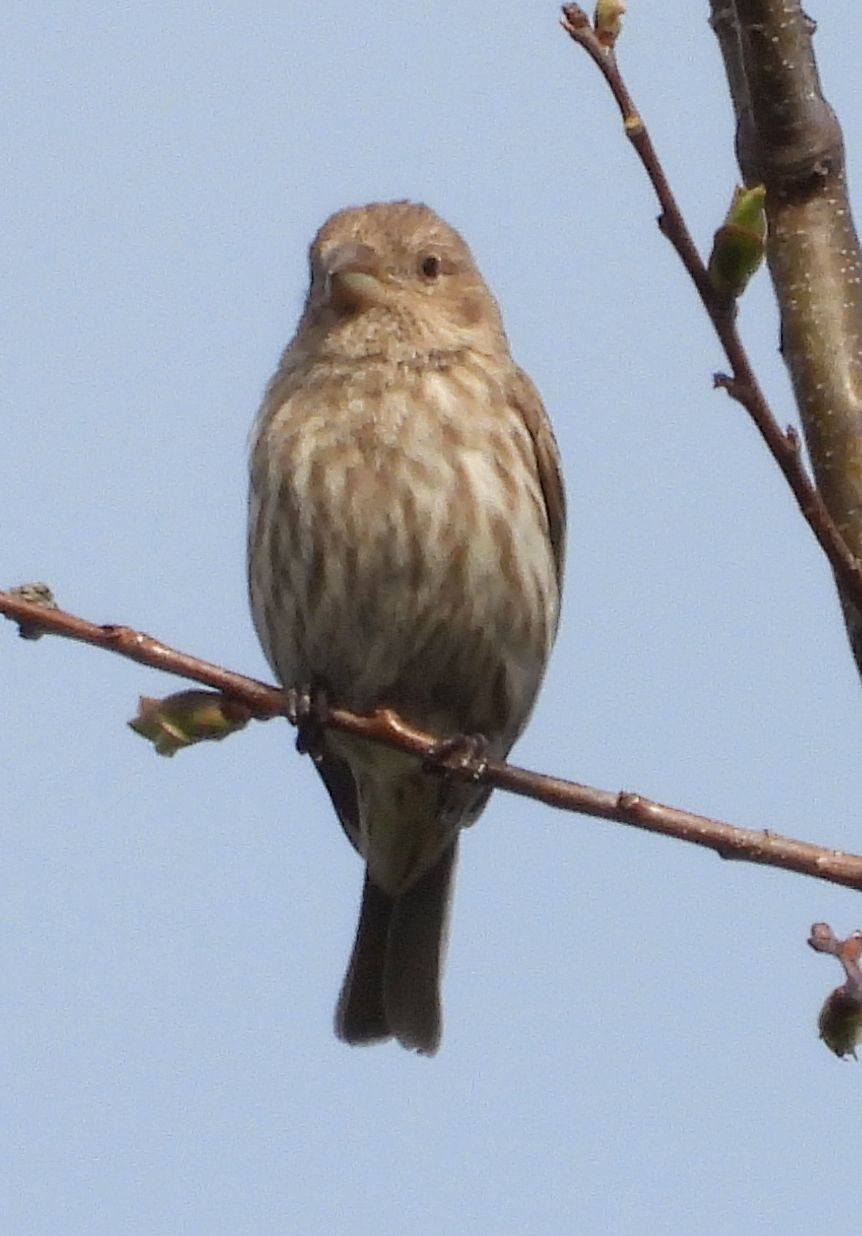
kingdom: Animalia
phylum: Chordata
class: Aves
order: Passeriformes
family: Fringillidae
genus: Haemorhous
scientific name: Haemorhous mexicanus
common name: House finch
